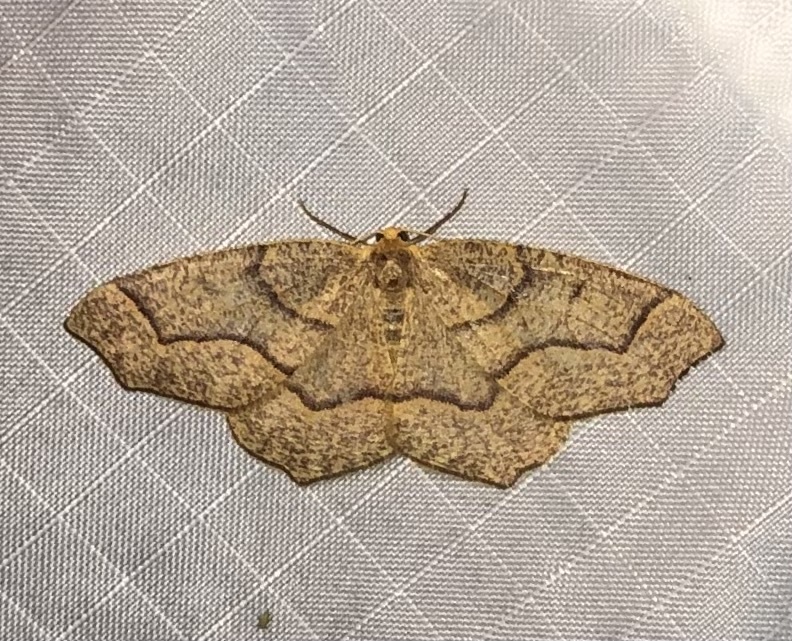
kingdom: Animalia
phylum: Arthropoda
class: Insecta
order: Lepidoptera
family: Geometridae
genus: Lambdina
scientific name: Lambdina fiscellaria
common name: Hemlock looper
